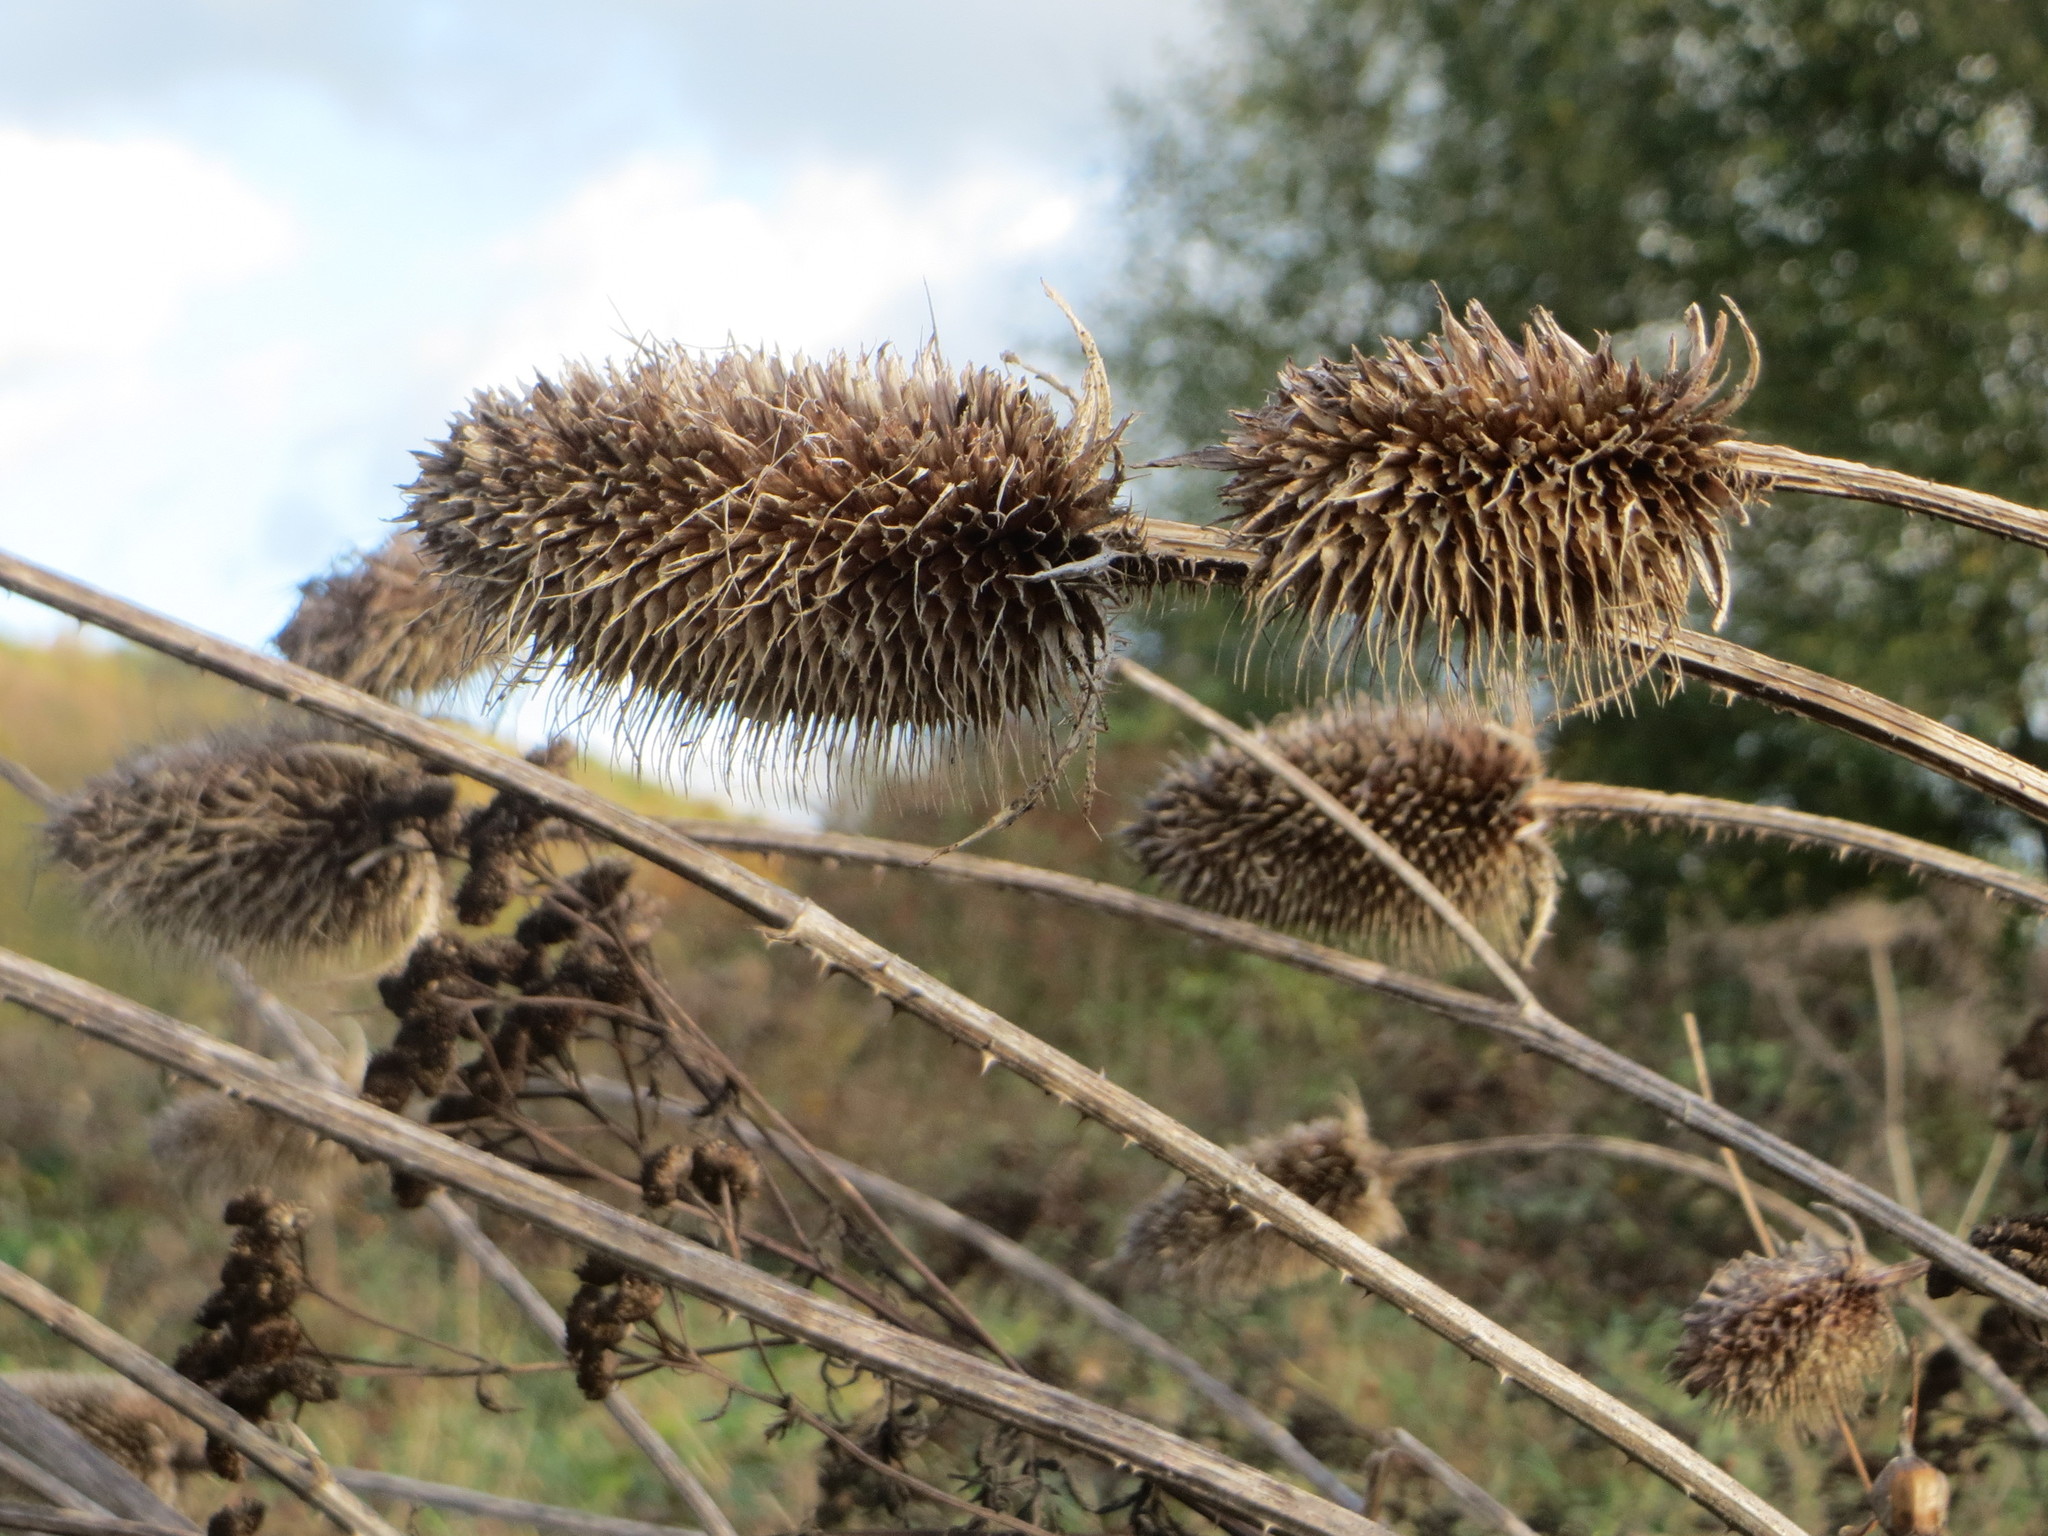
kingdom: Plantae
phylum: Tracheophyta
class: Magnoliopsida
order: Dipsacales
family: Caprifoliaceae
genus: Dipsacus
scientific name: Dipsacus fullonum
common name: Teasel
